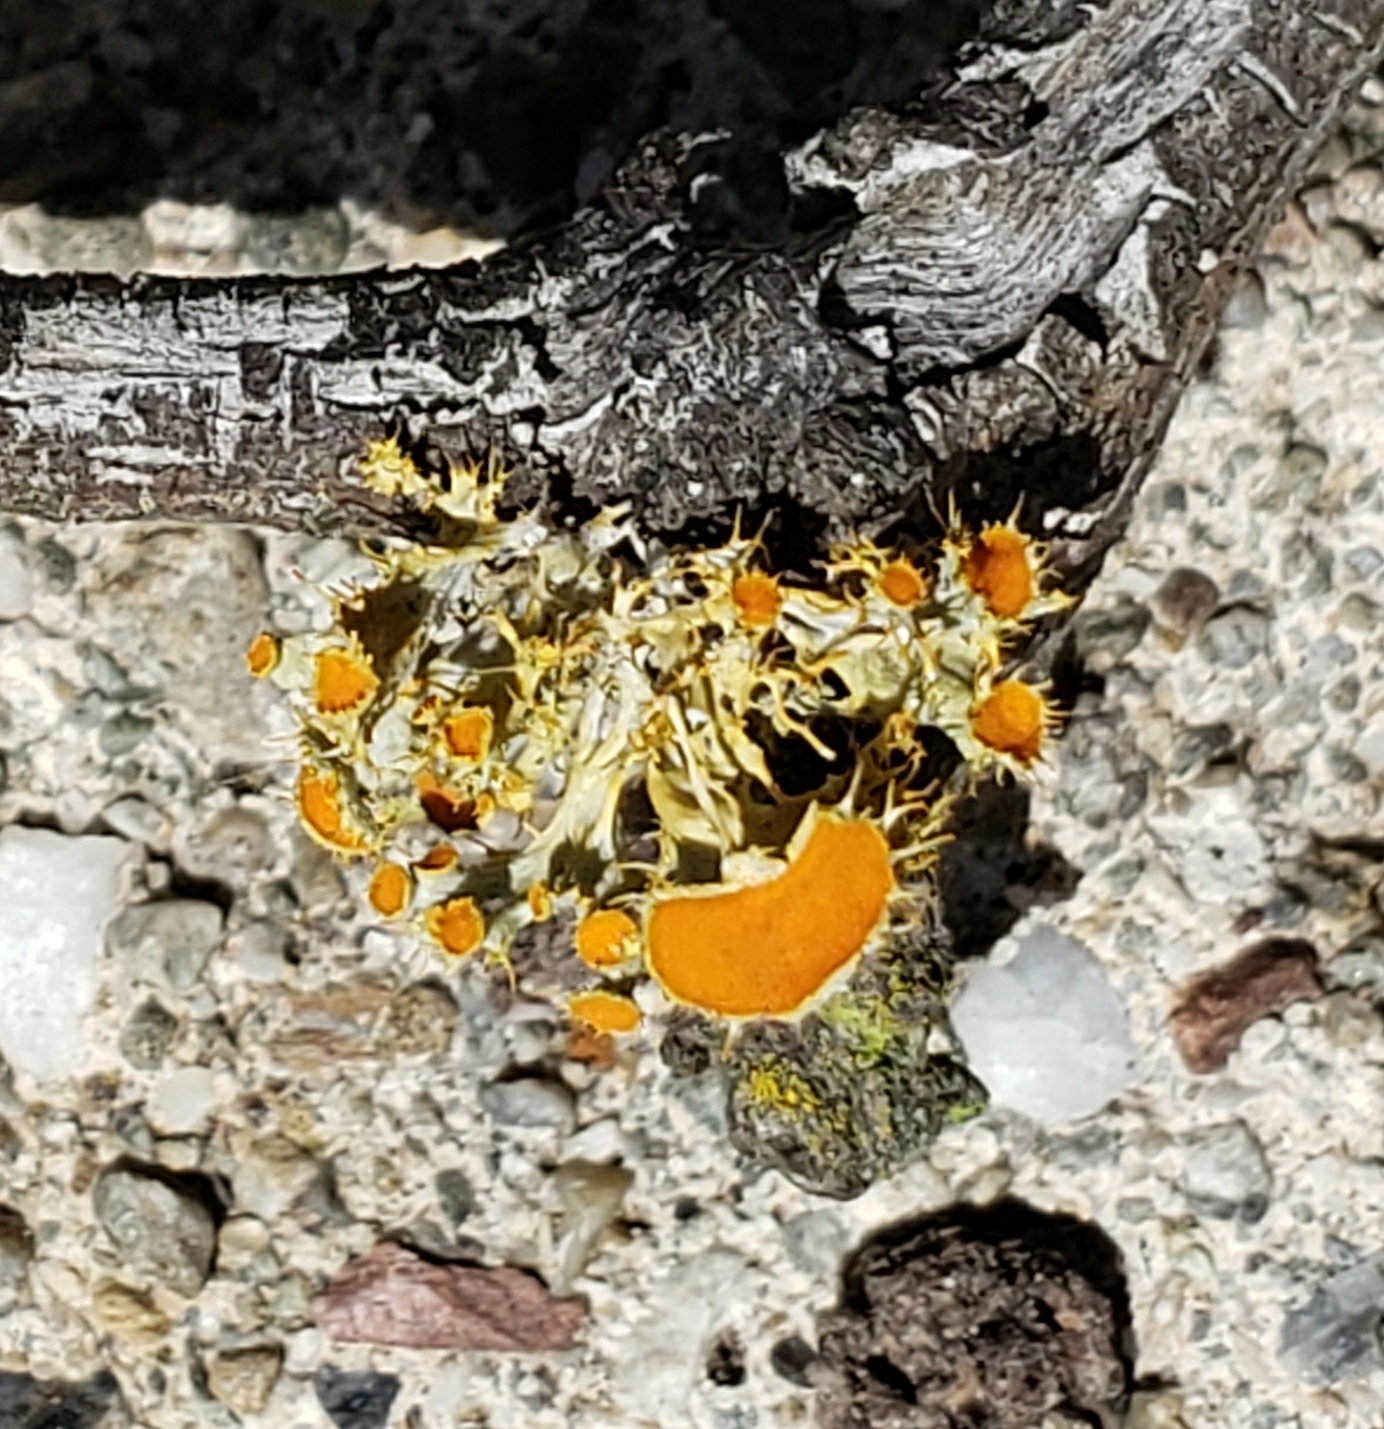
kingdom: Fungi
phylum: Ascomycota
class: Lecanoromycetes
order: Teloschistales
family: Teloschistaceae
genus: Niorma
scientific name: Niorma chrysophthalma
